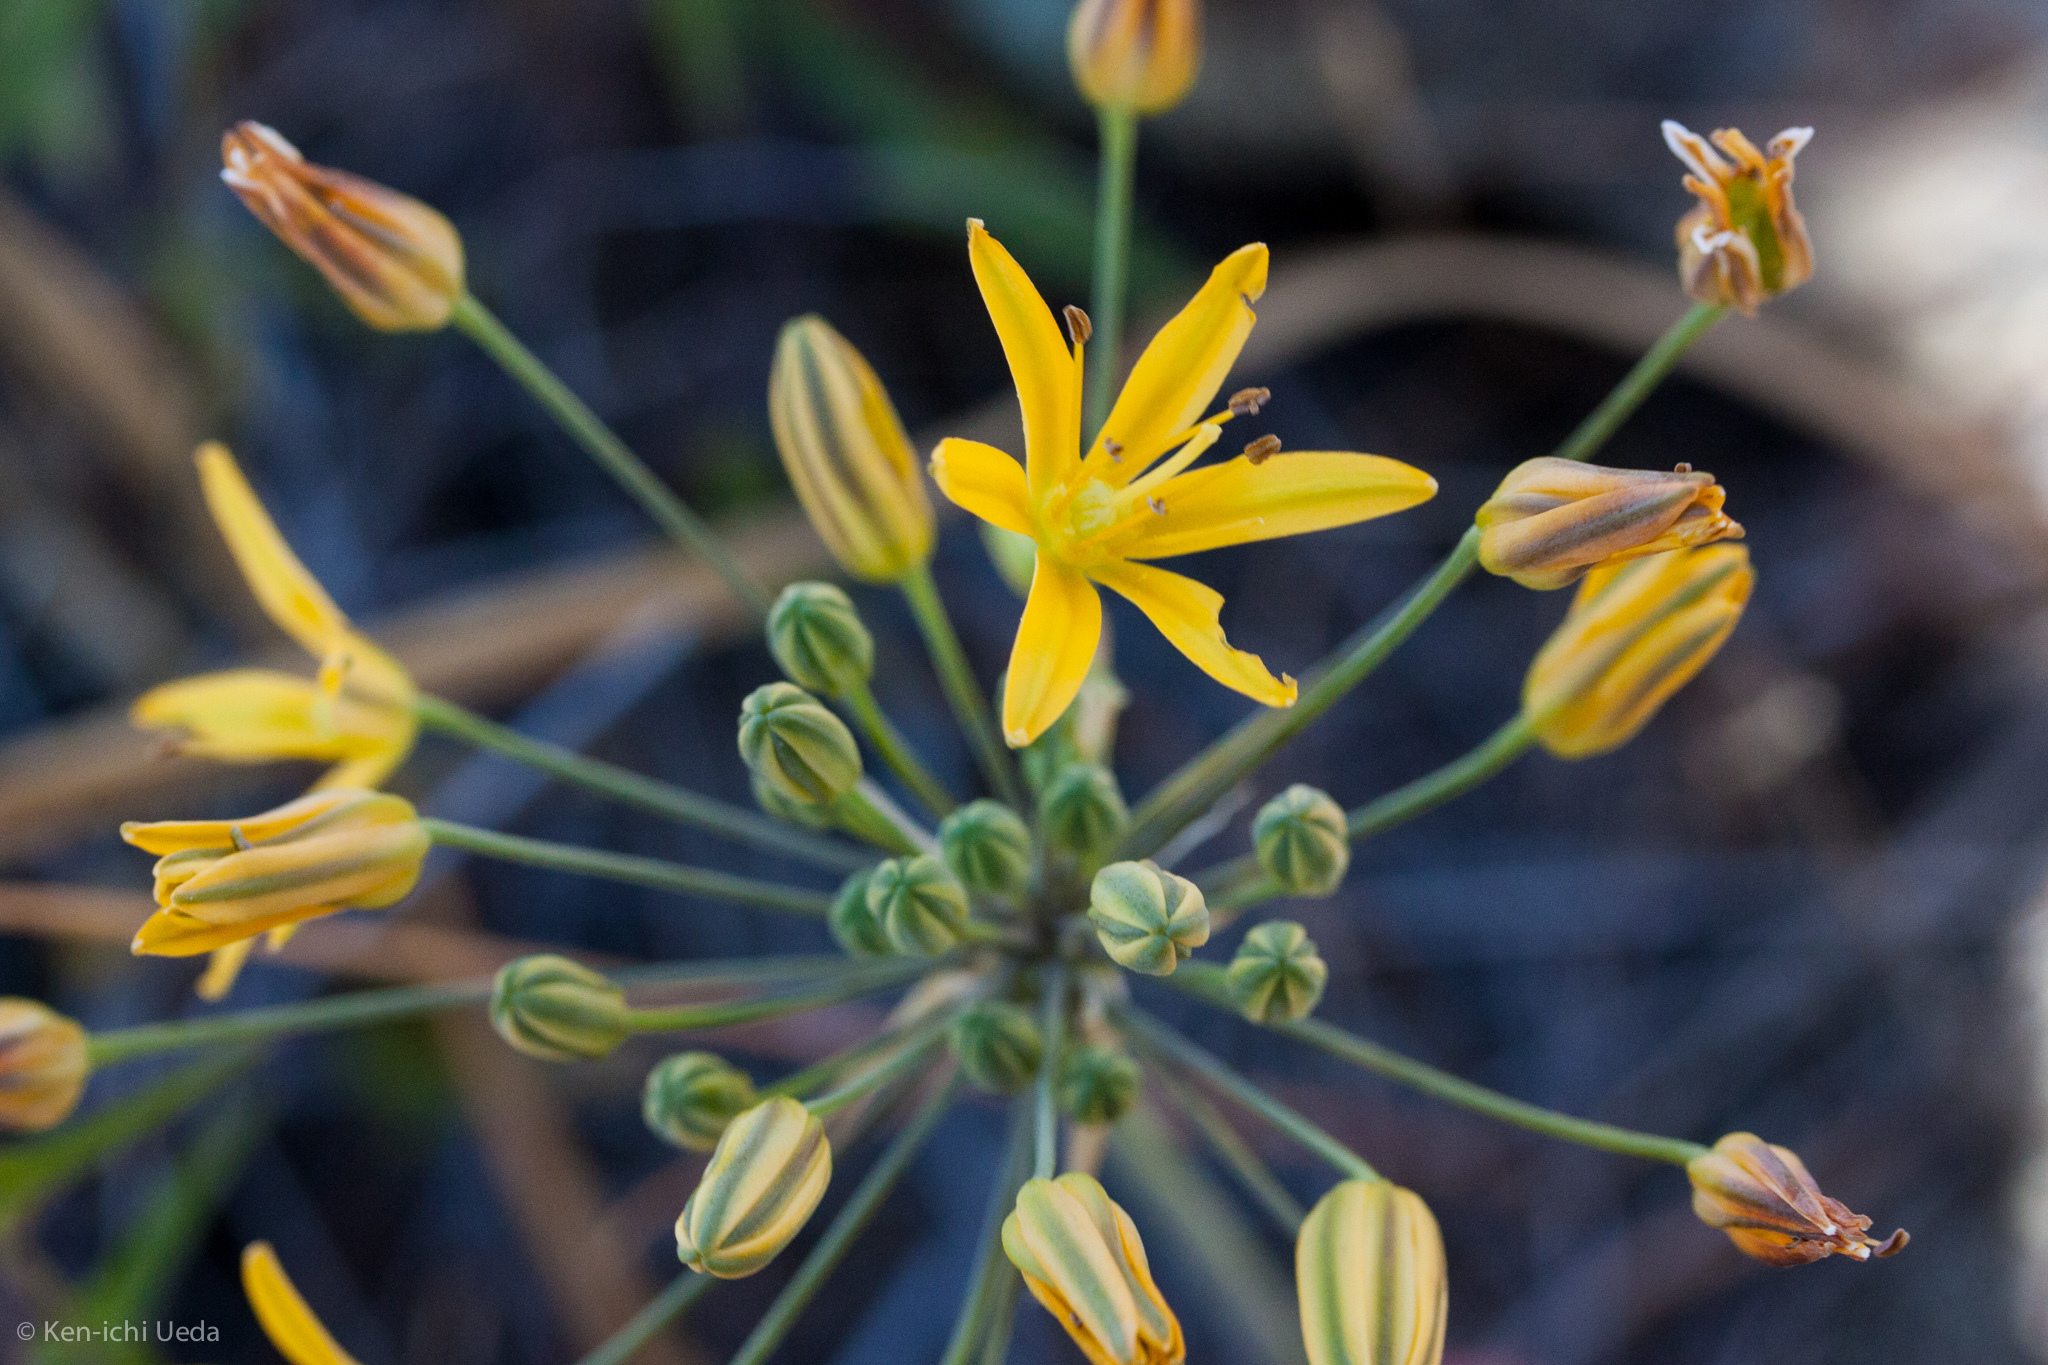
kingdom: Plantae
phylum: Tracheophyta
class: Liliopsida
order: Asparagales
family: Asparagaceae
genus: Bloomeria
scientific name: Bloomeria crocea
